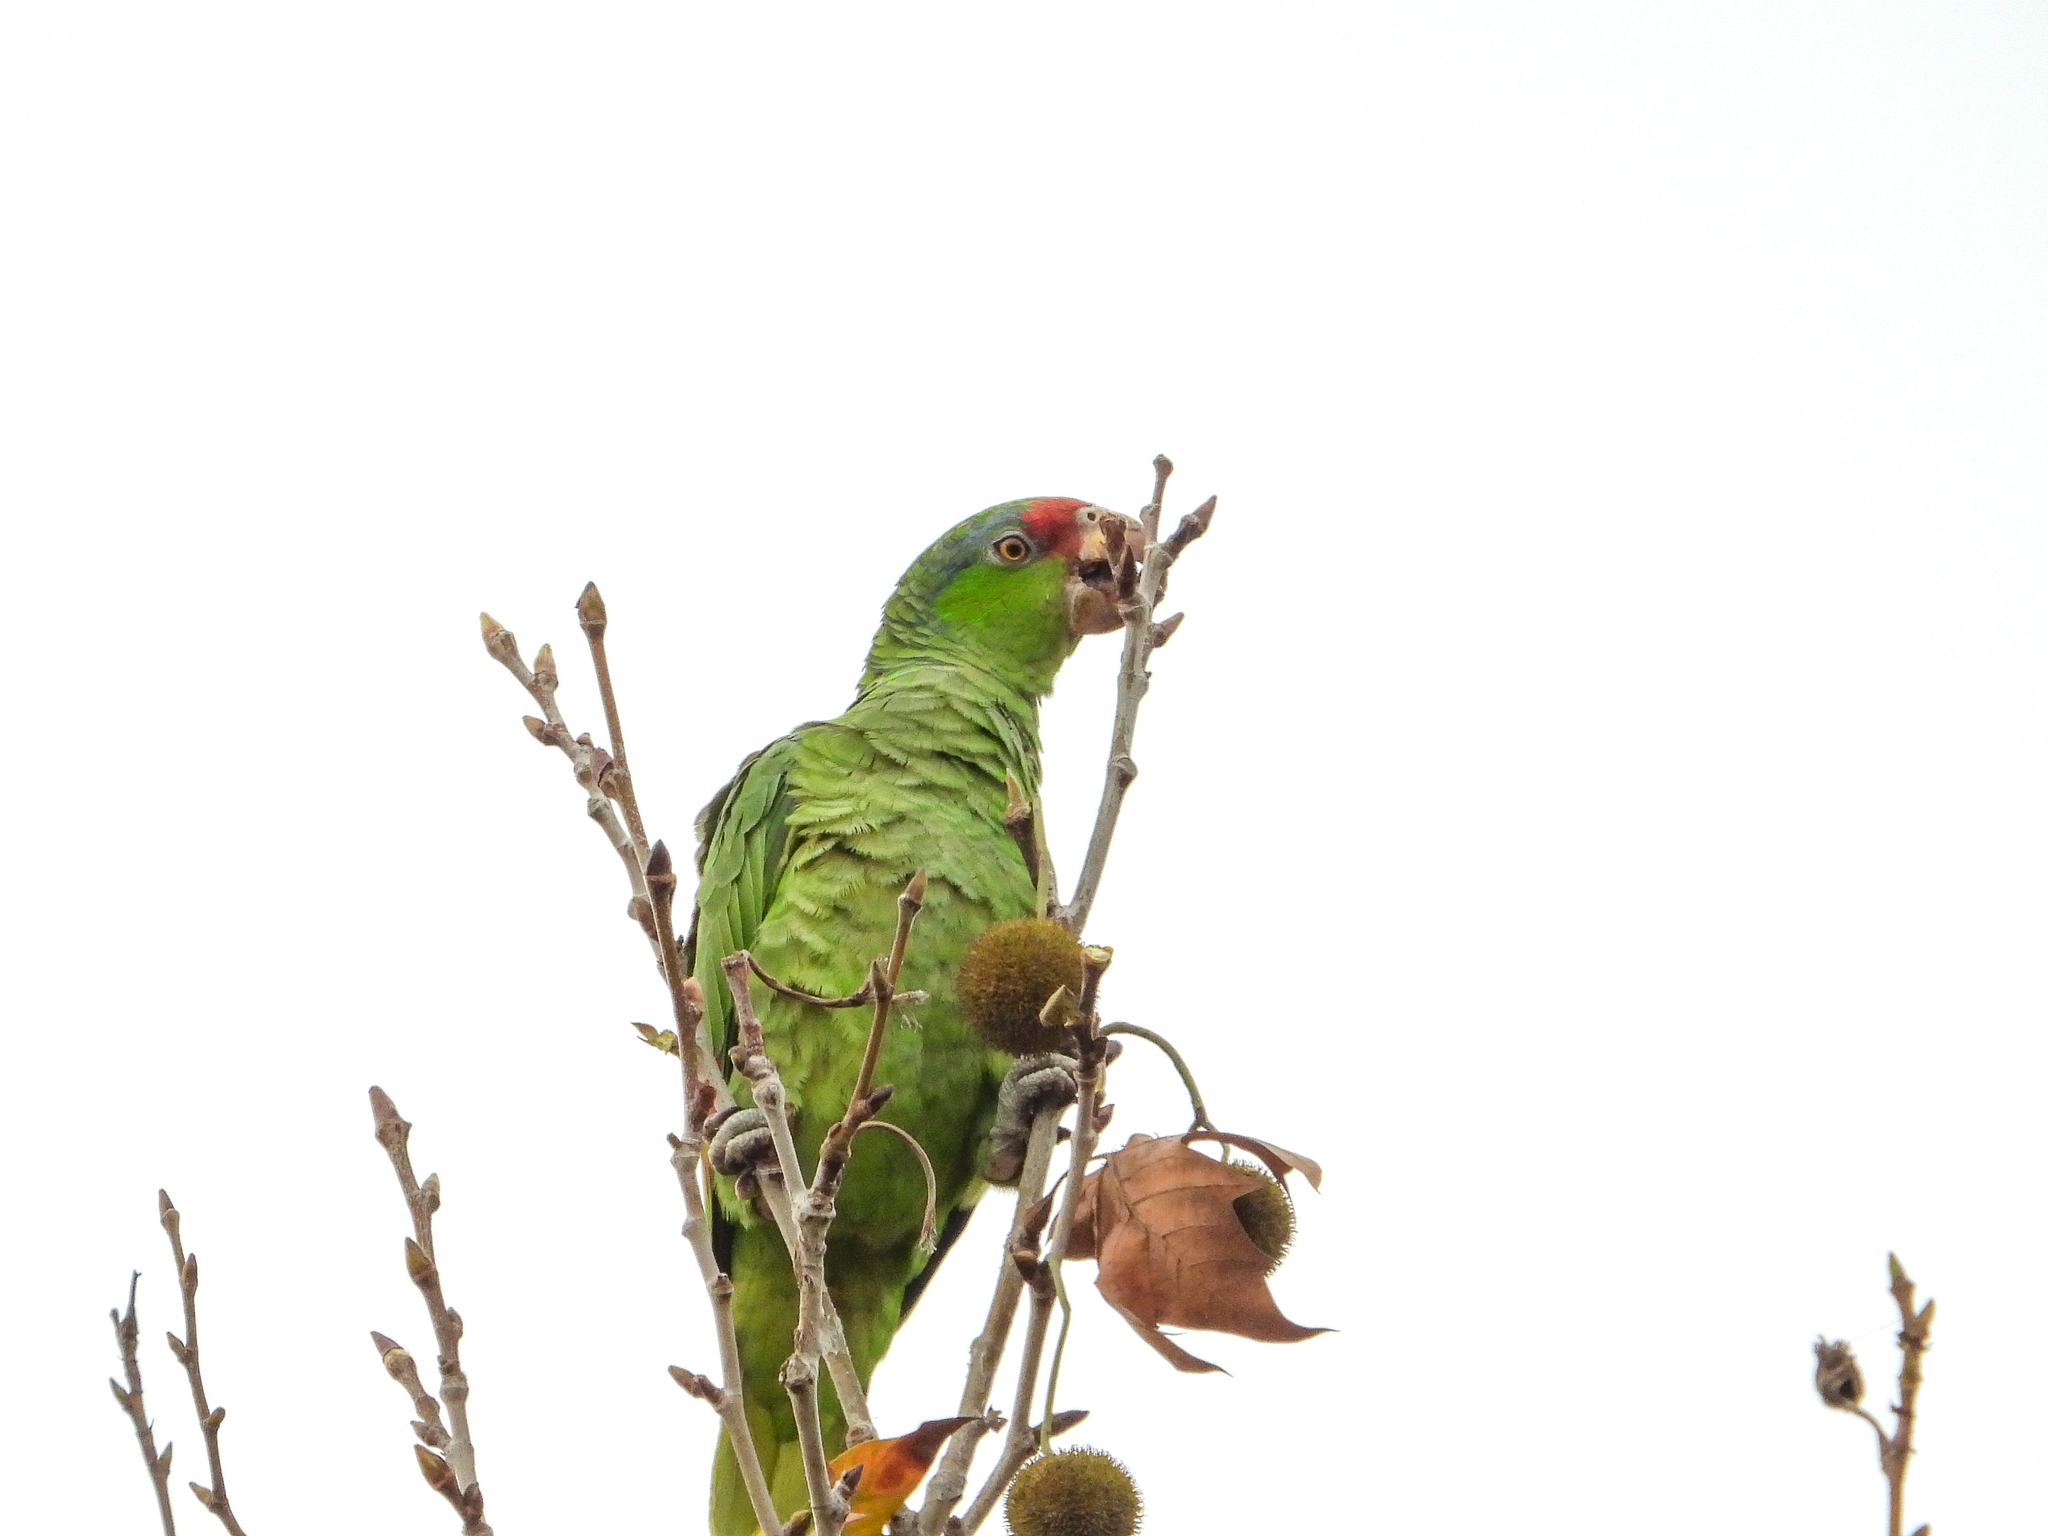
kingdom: Animalia
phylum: Chordata
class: Aves
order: Psittaciformes
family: Psittacidae
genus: Amazona
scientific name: Amazona viridigenalis
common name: Red-crowned amazon
